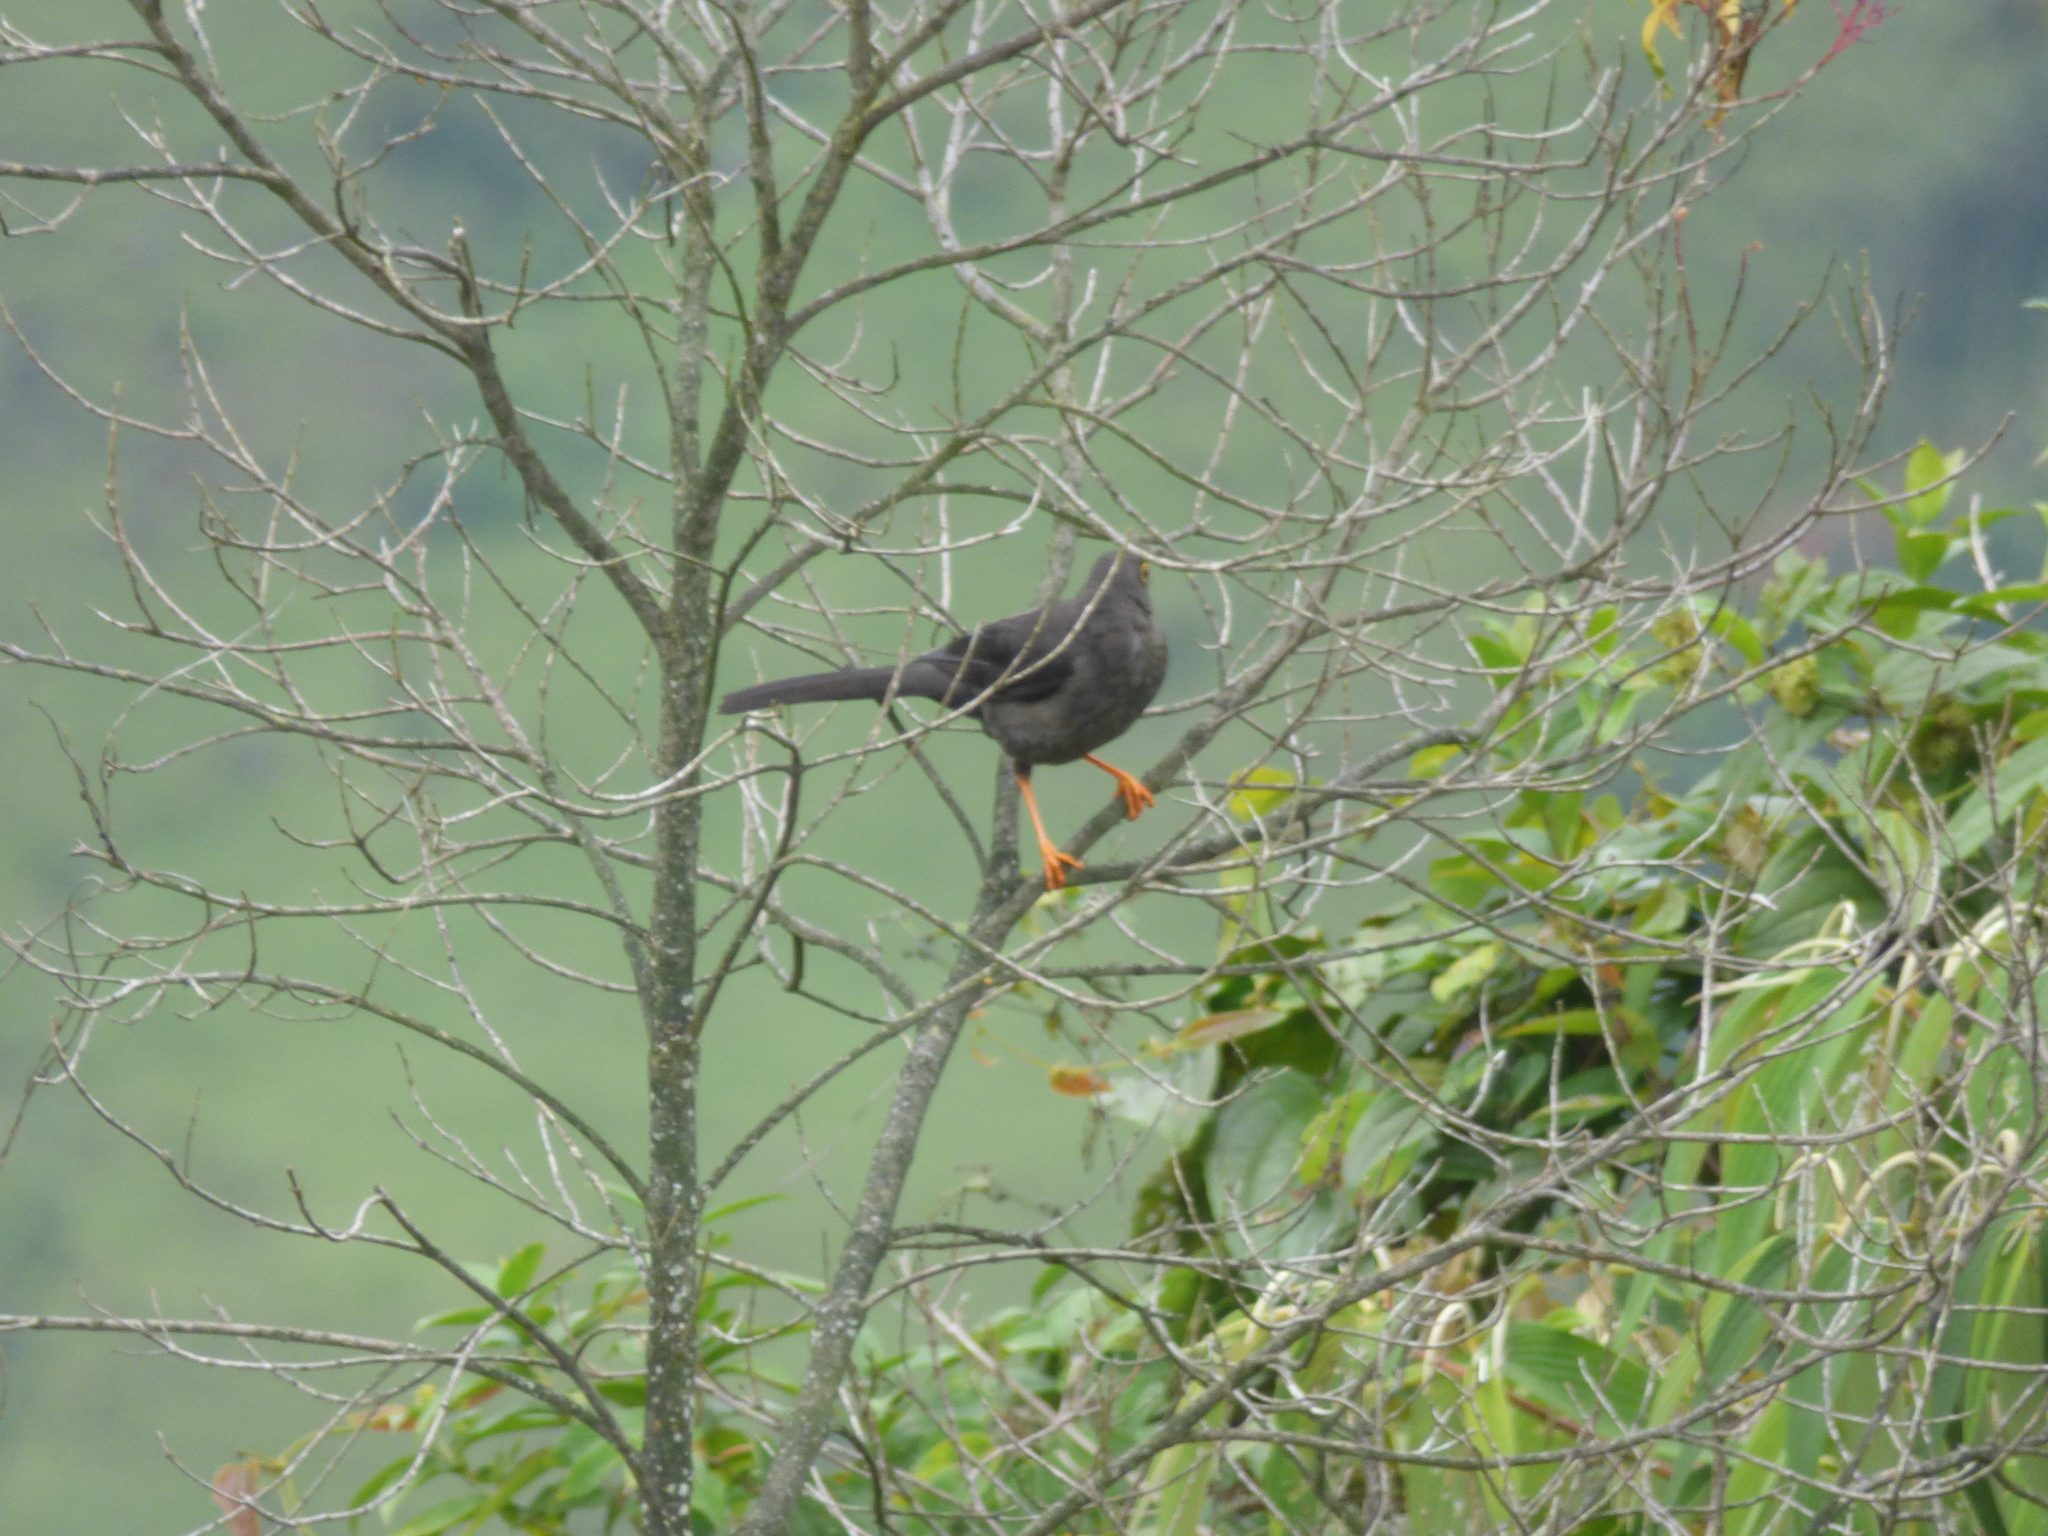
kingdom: Animalia
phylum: Chordata
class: Aves
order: Passeriformes
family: Turdidae
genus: Turdus
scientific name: Turdus fuscater
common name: Great thrush
